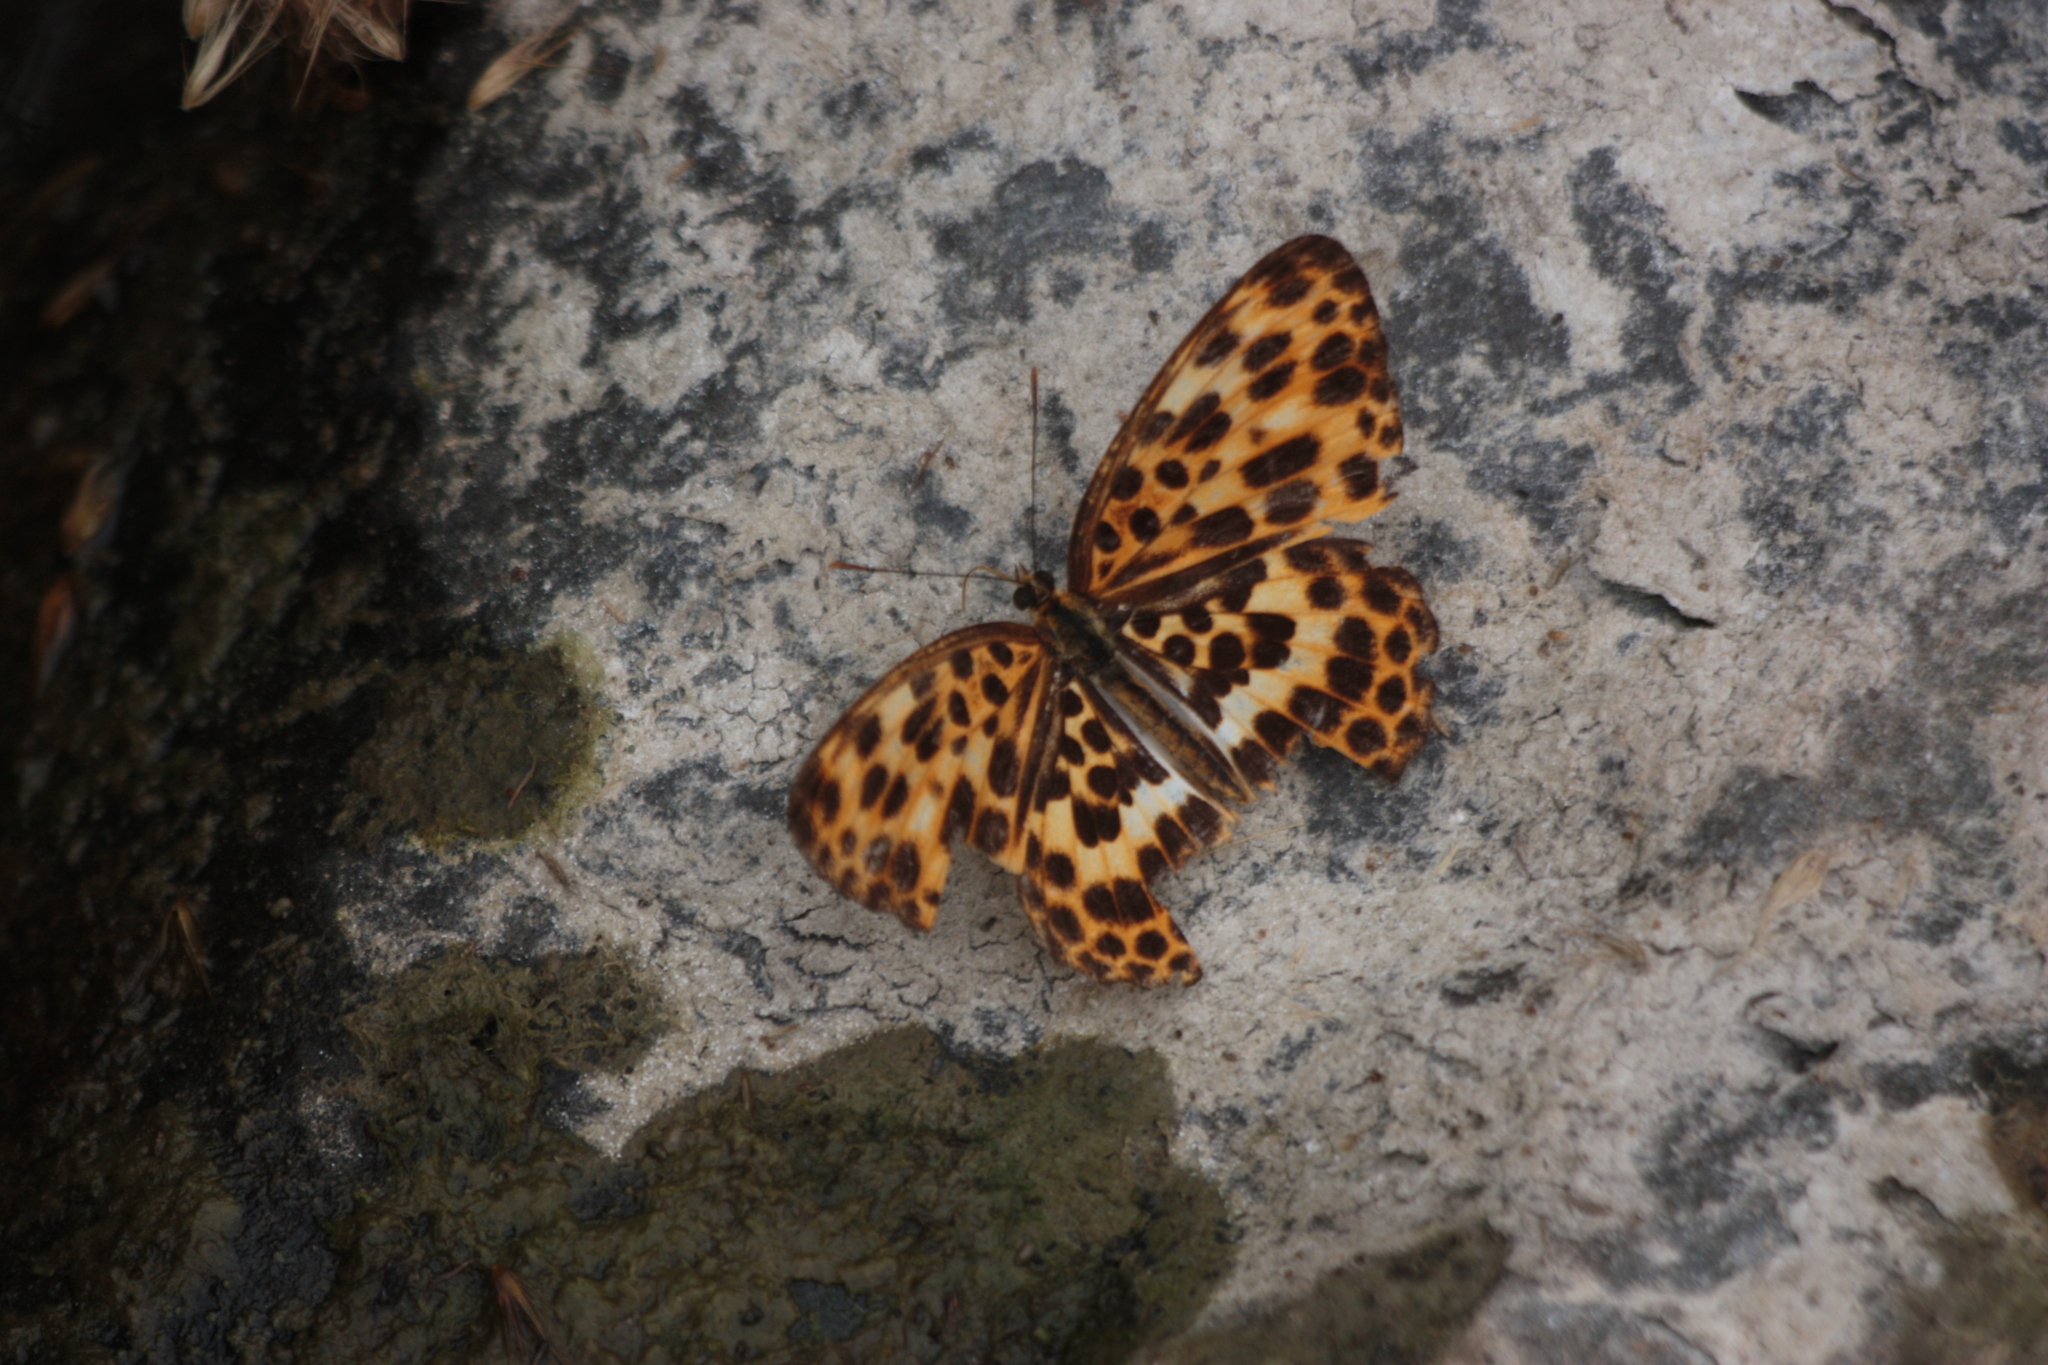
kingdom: Animalia
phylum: Arthropoda
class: Insecta
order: Lepidoptera
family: Nymphalidae
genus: Timelaea
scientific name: Timelaea albescens
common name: Beautiful leopard
